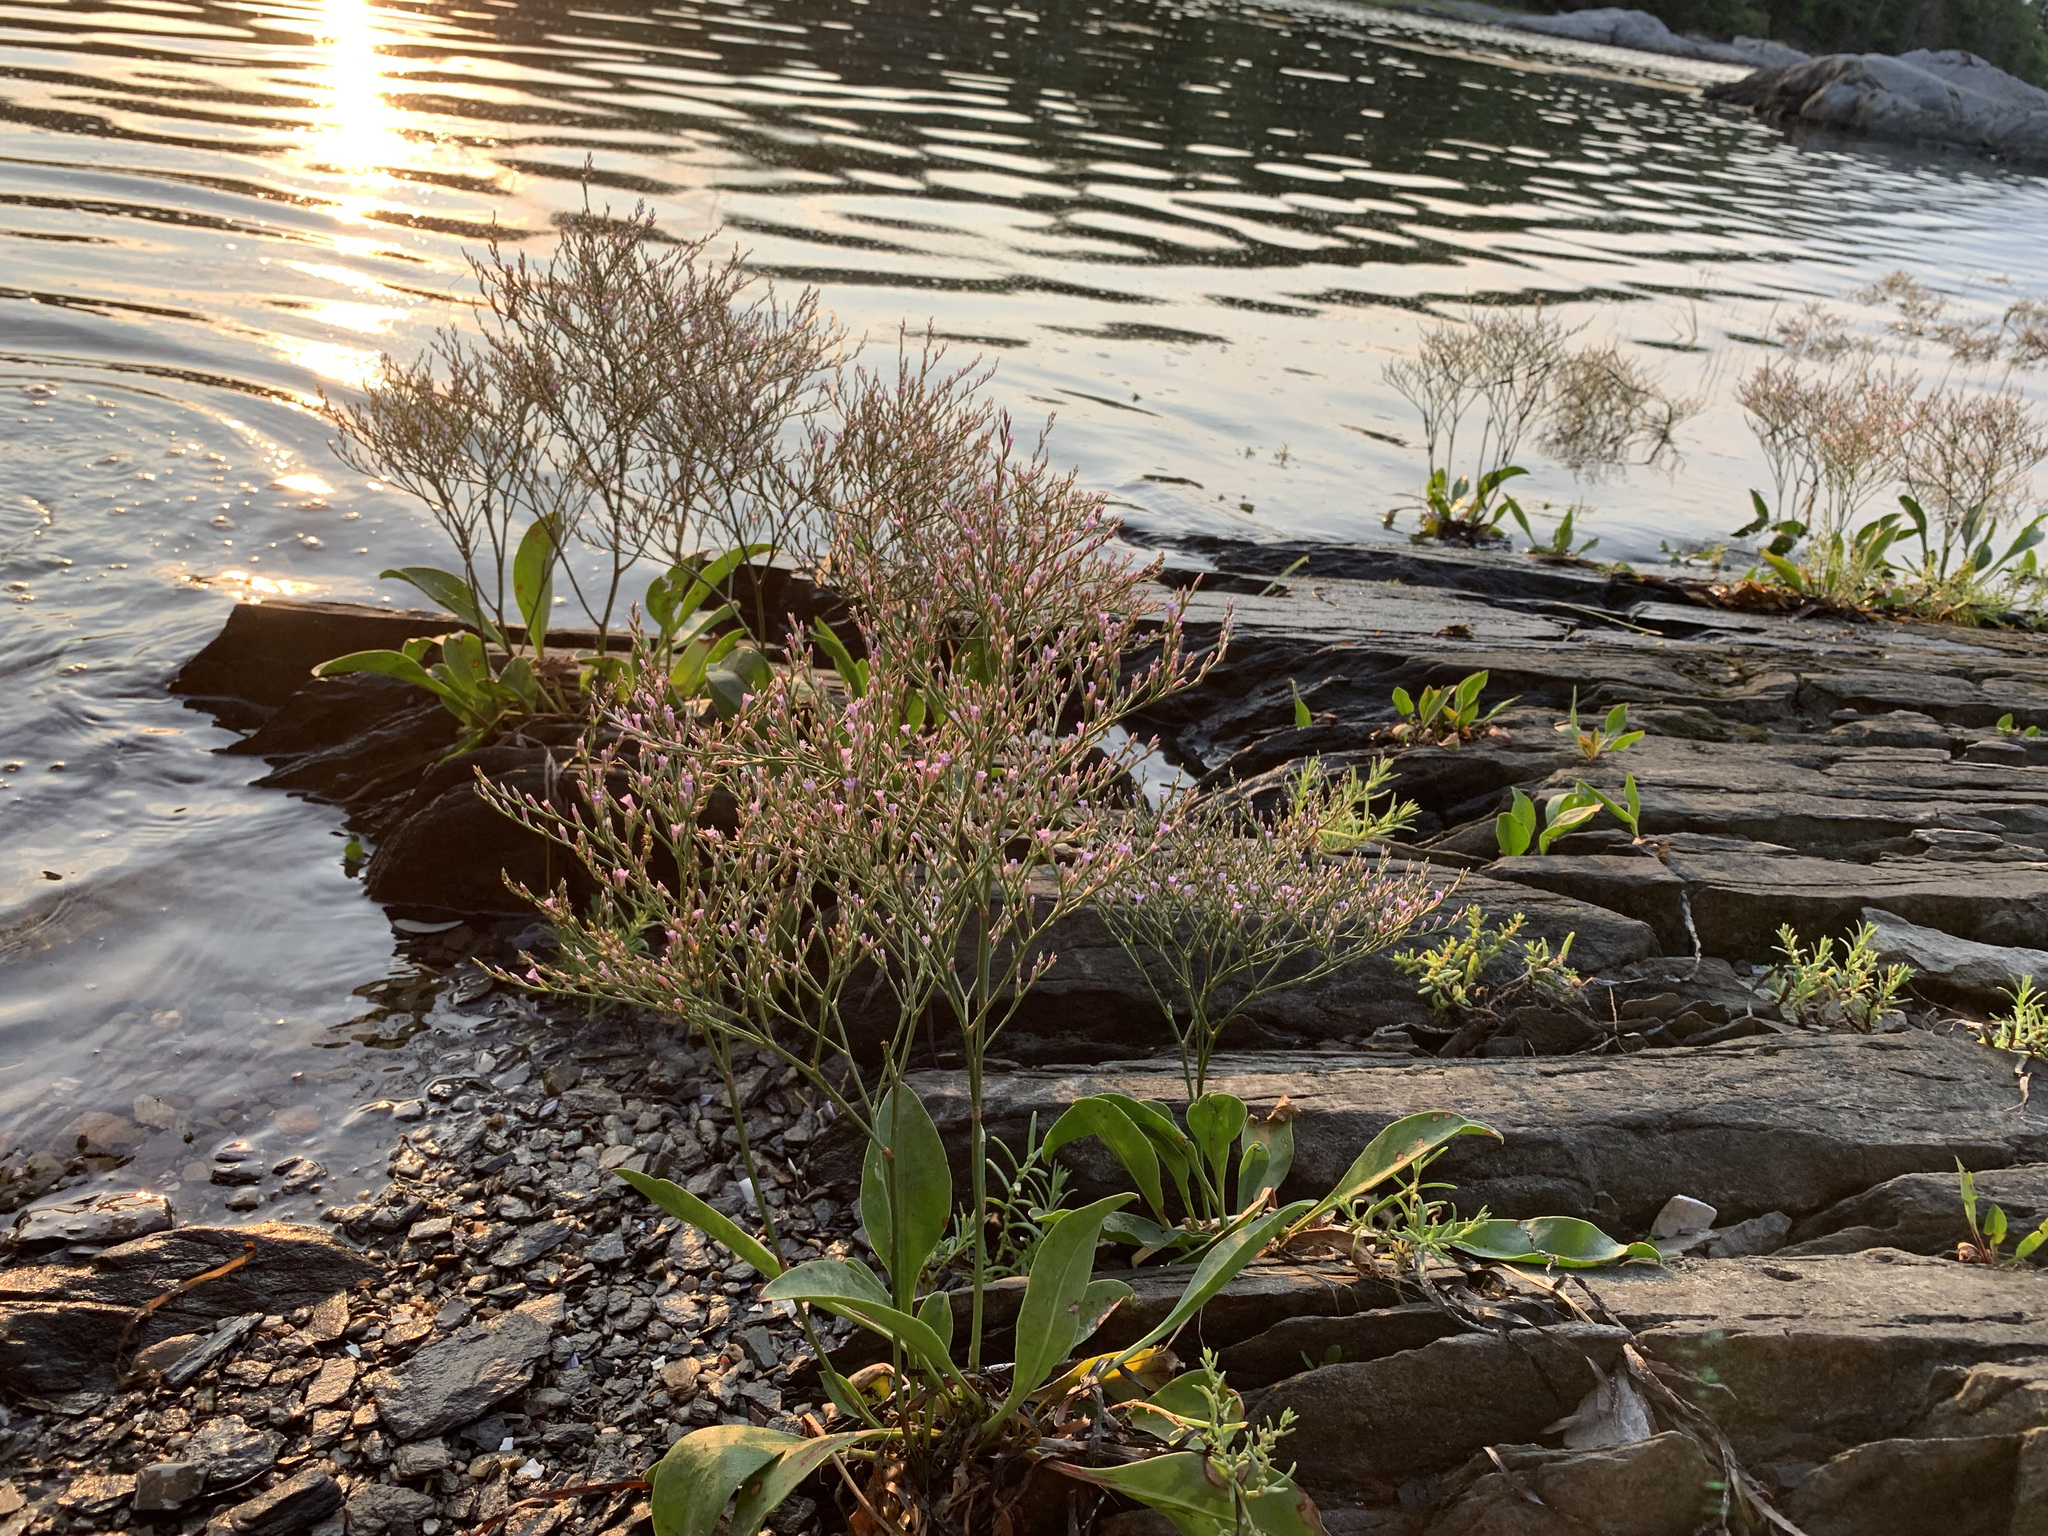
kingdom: Plantae
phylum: Tracheophyta
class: Magnoliopsida
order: Caryophyllales
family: Plumbaginaceae
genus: Limonium
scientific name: Limonium carolinianum
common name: Carolina sea lavender
